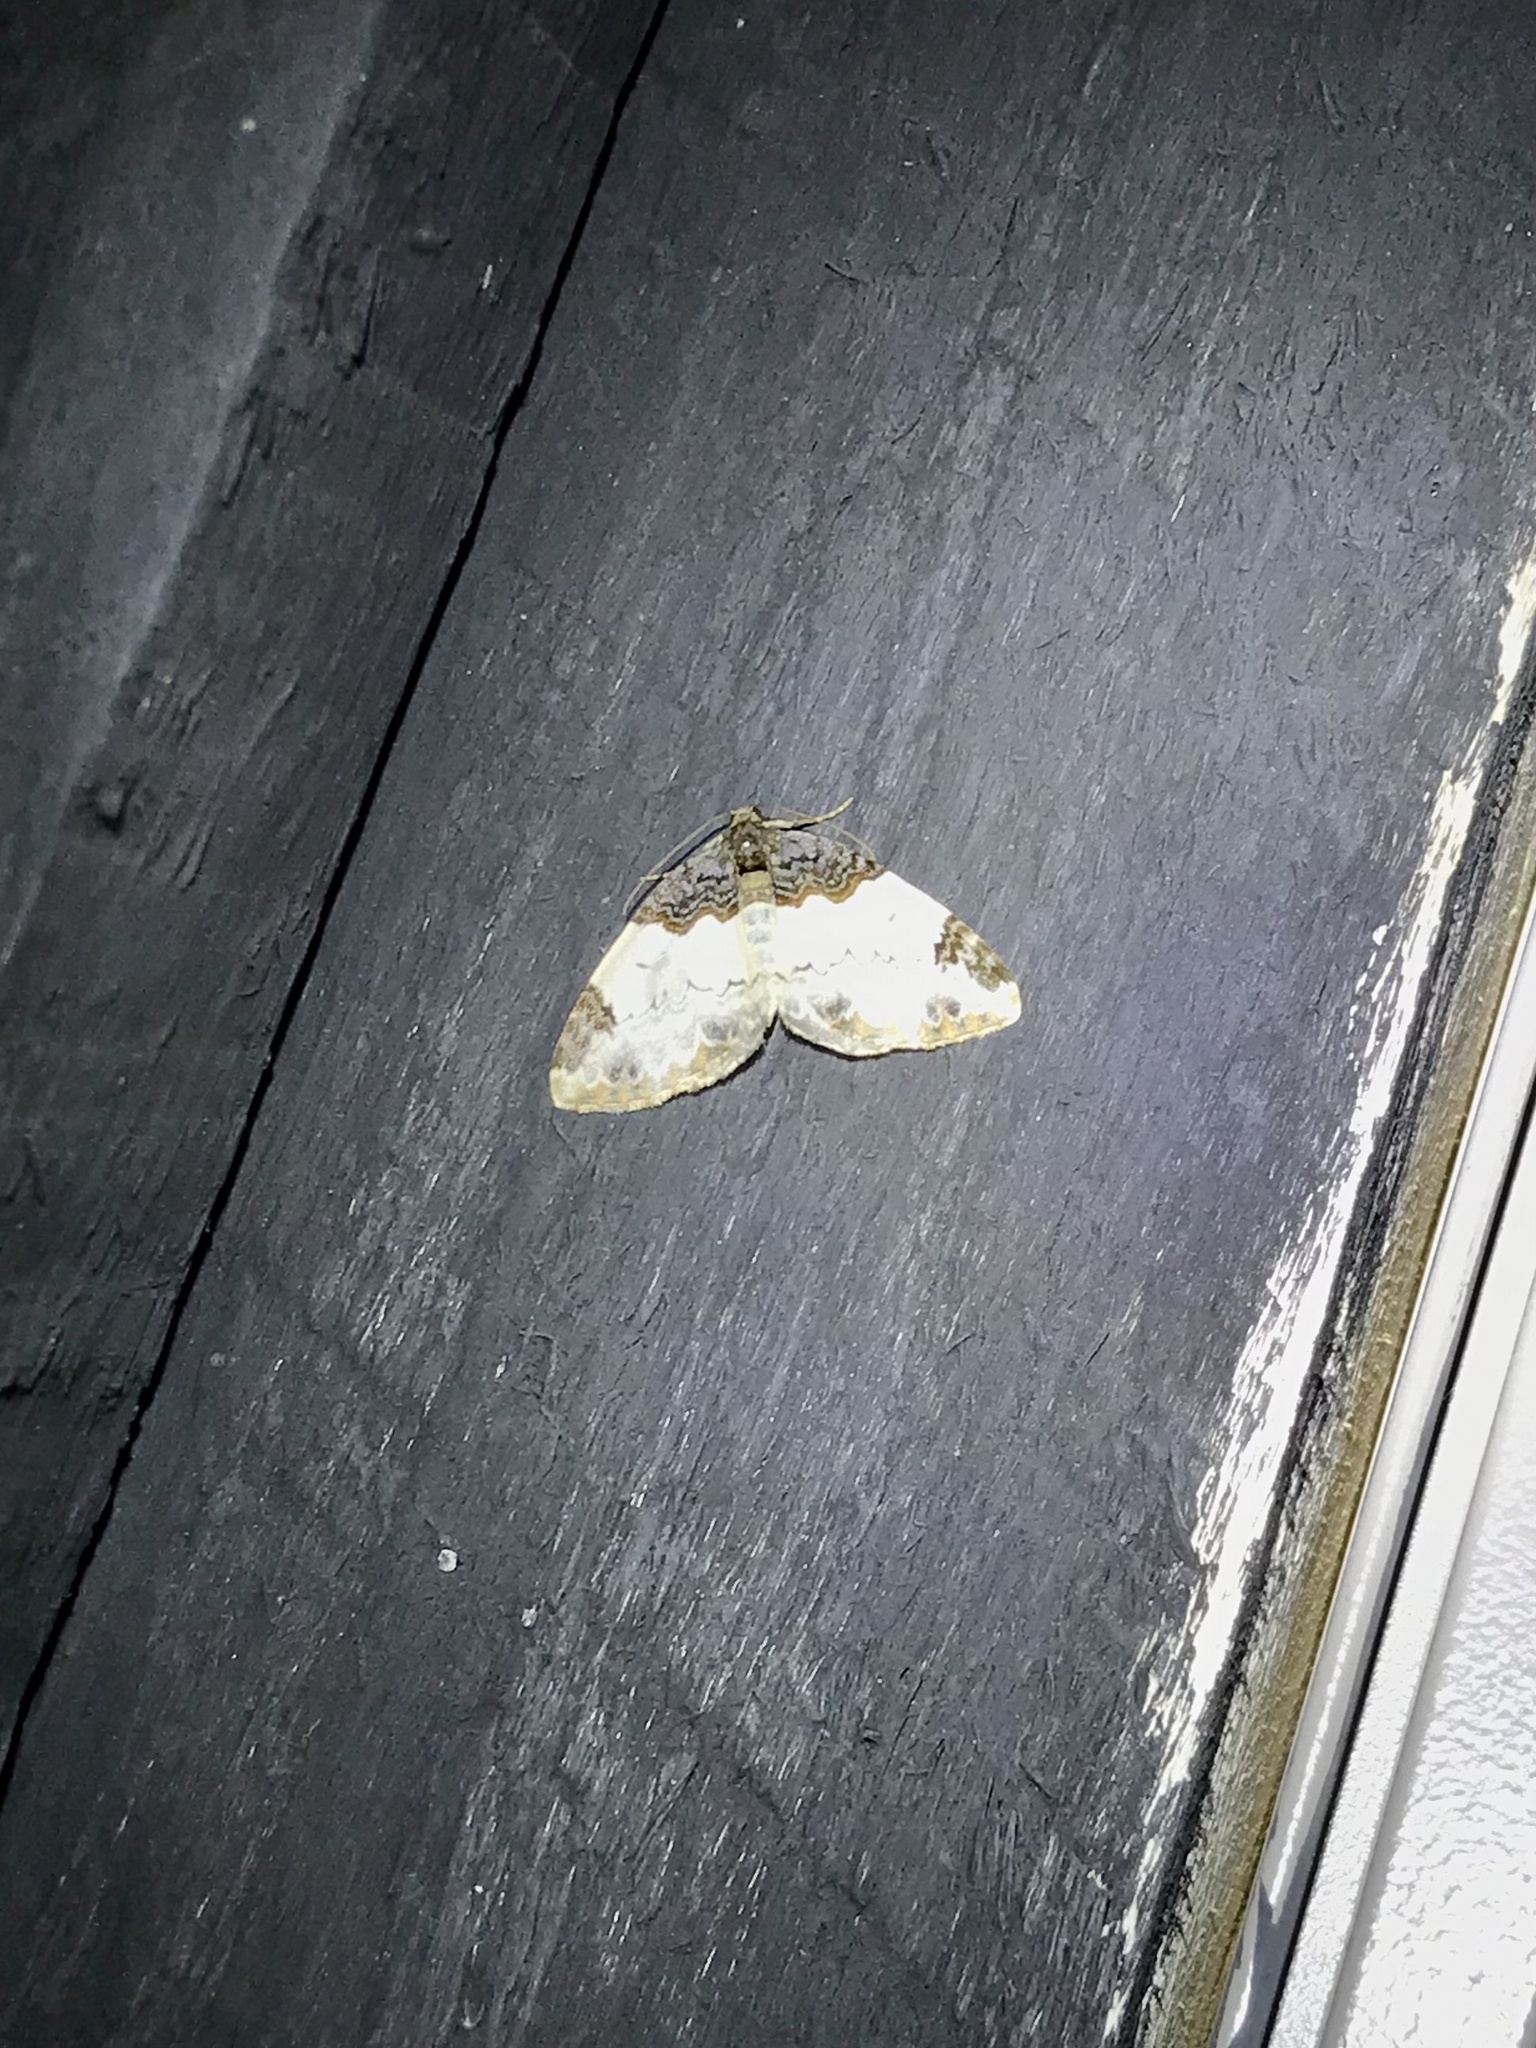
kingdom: Animalia
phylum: Arthropoda
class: Insecta
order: Lepidoptera
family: Geometridae
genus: Mesoleuca
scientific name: Mesoleuca ruficillata
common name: White-ribboned carpet moth
